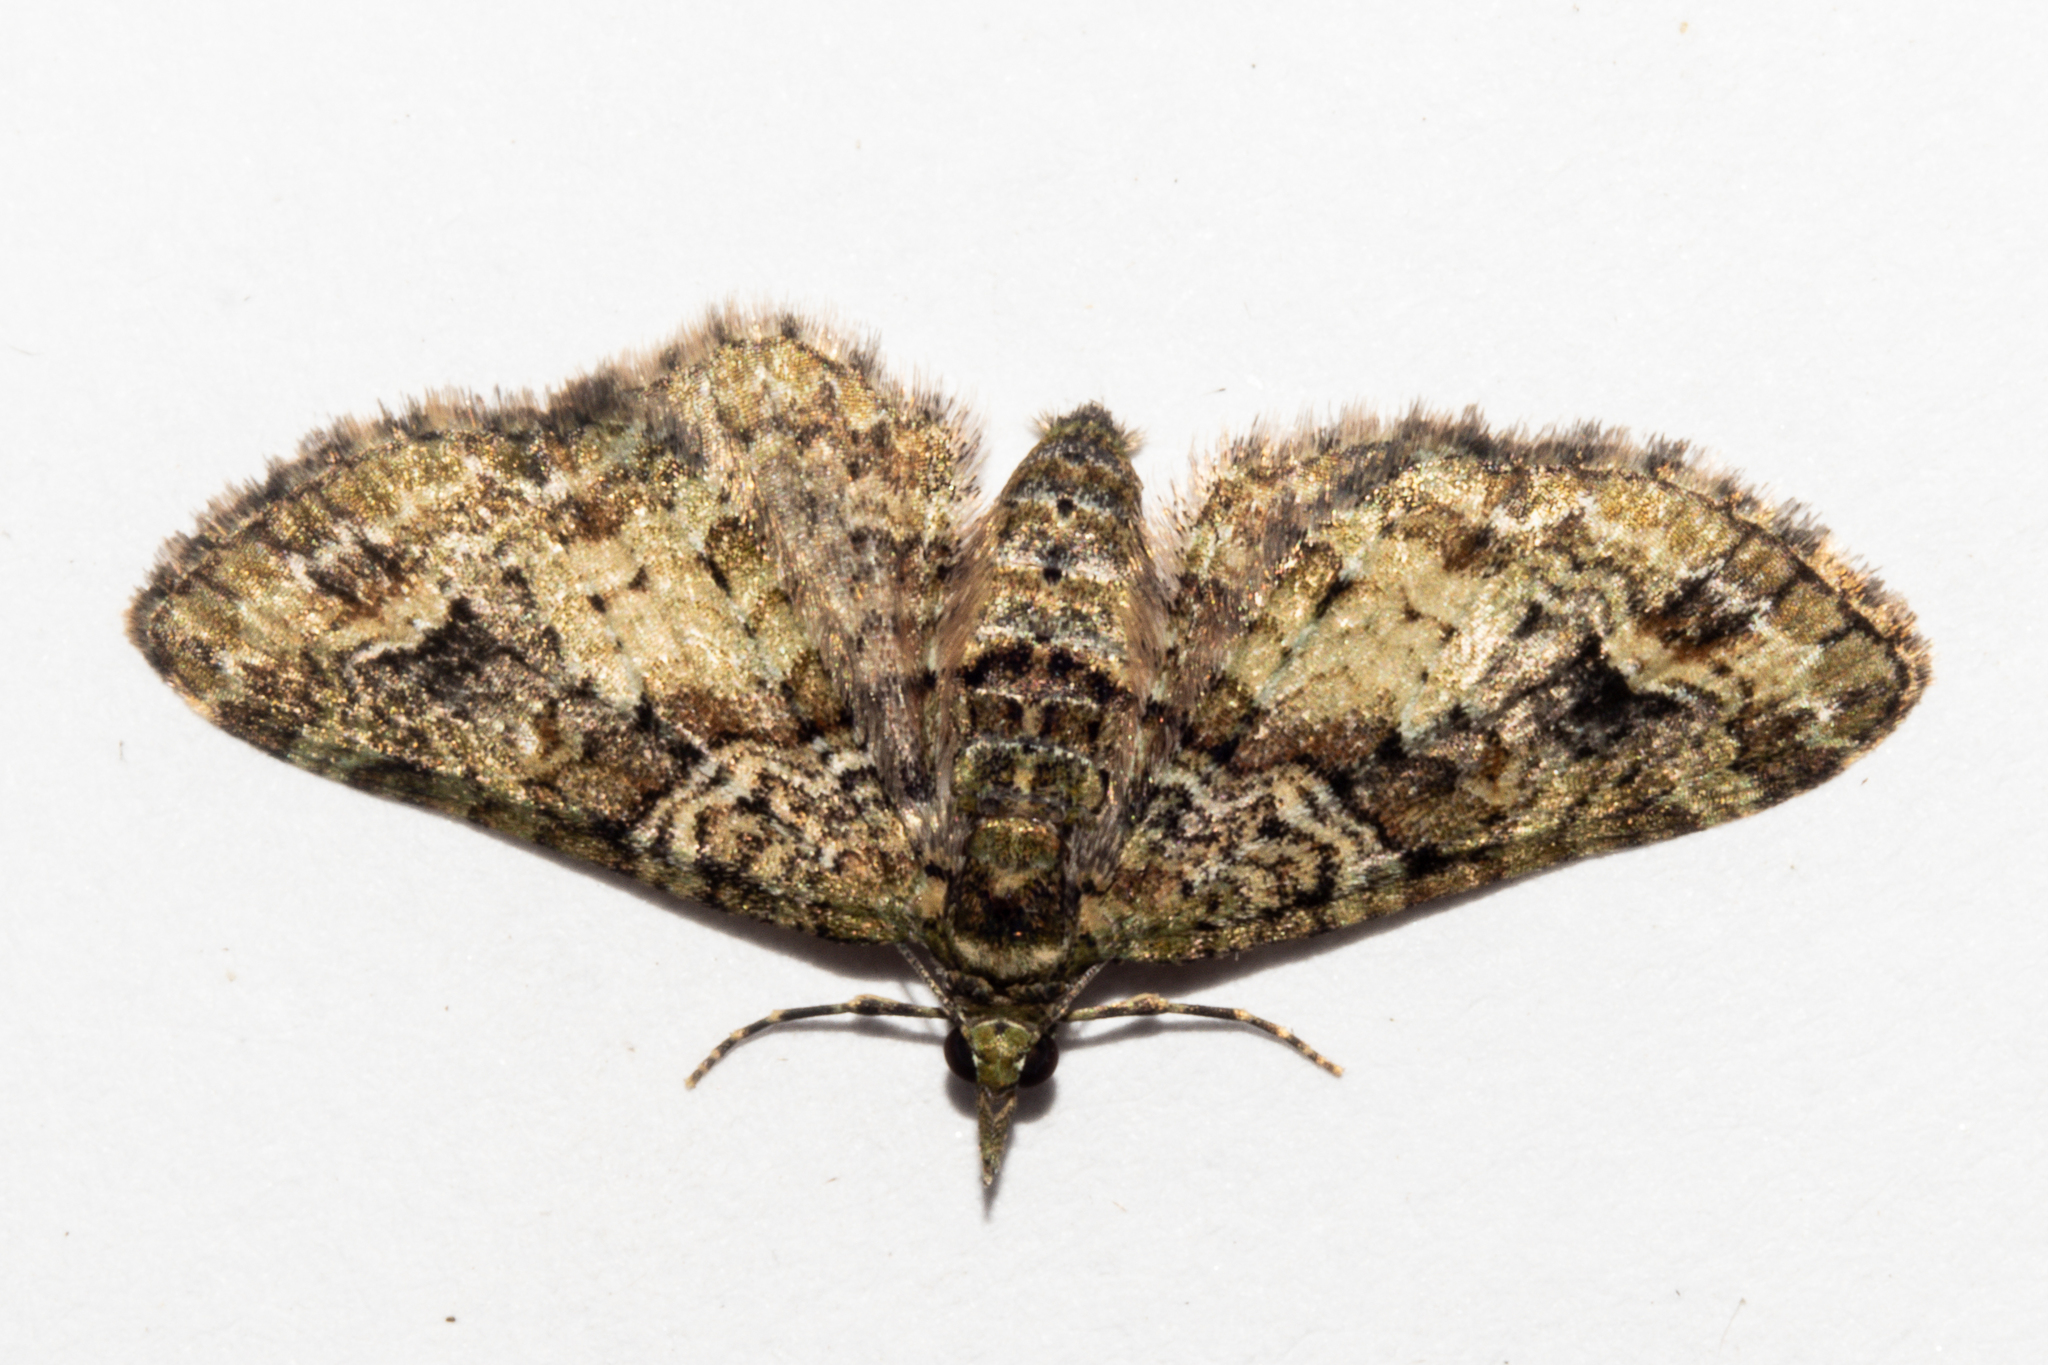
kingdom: Animalia
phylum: Arthropoda
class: Insecta
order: Lepidoptera
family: Geometridae
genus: Idaea
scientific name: Idaea mutanda
